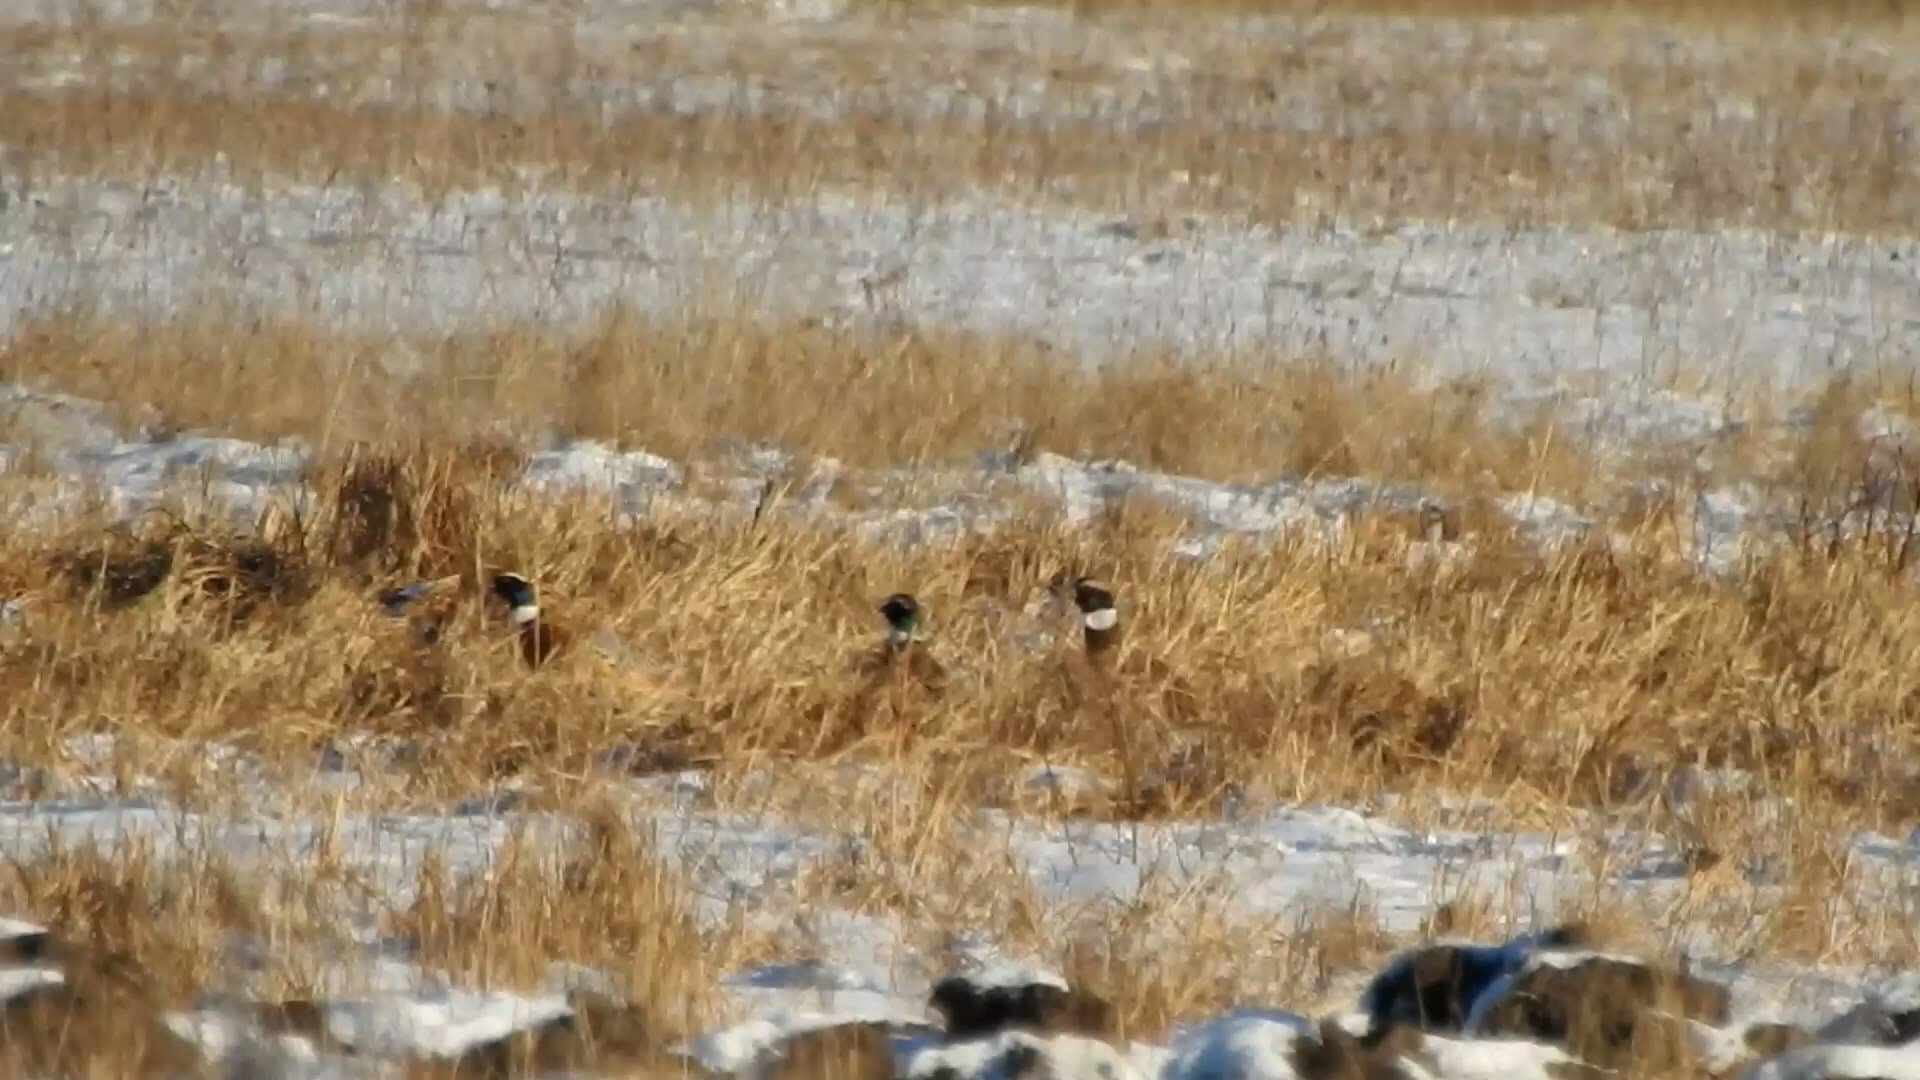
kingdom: Animalia
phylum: Chordata
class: Aves
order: Galliformes
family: Phasianidae
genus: Phasianus
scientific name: Phasianus colchicus
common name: Common pheasant
